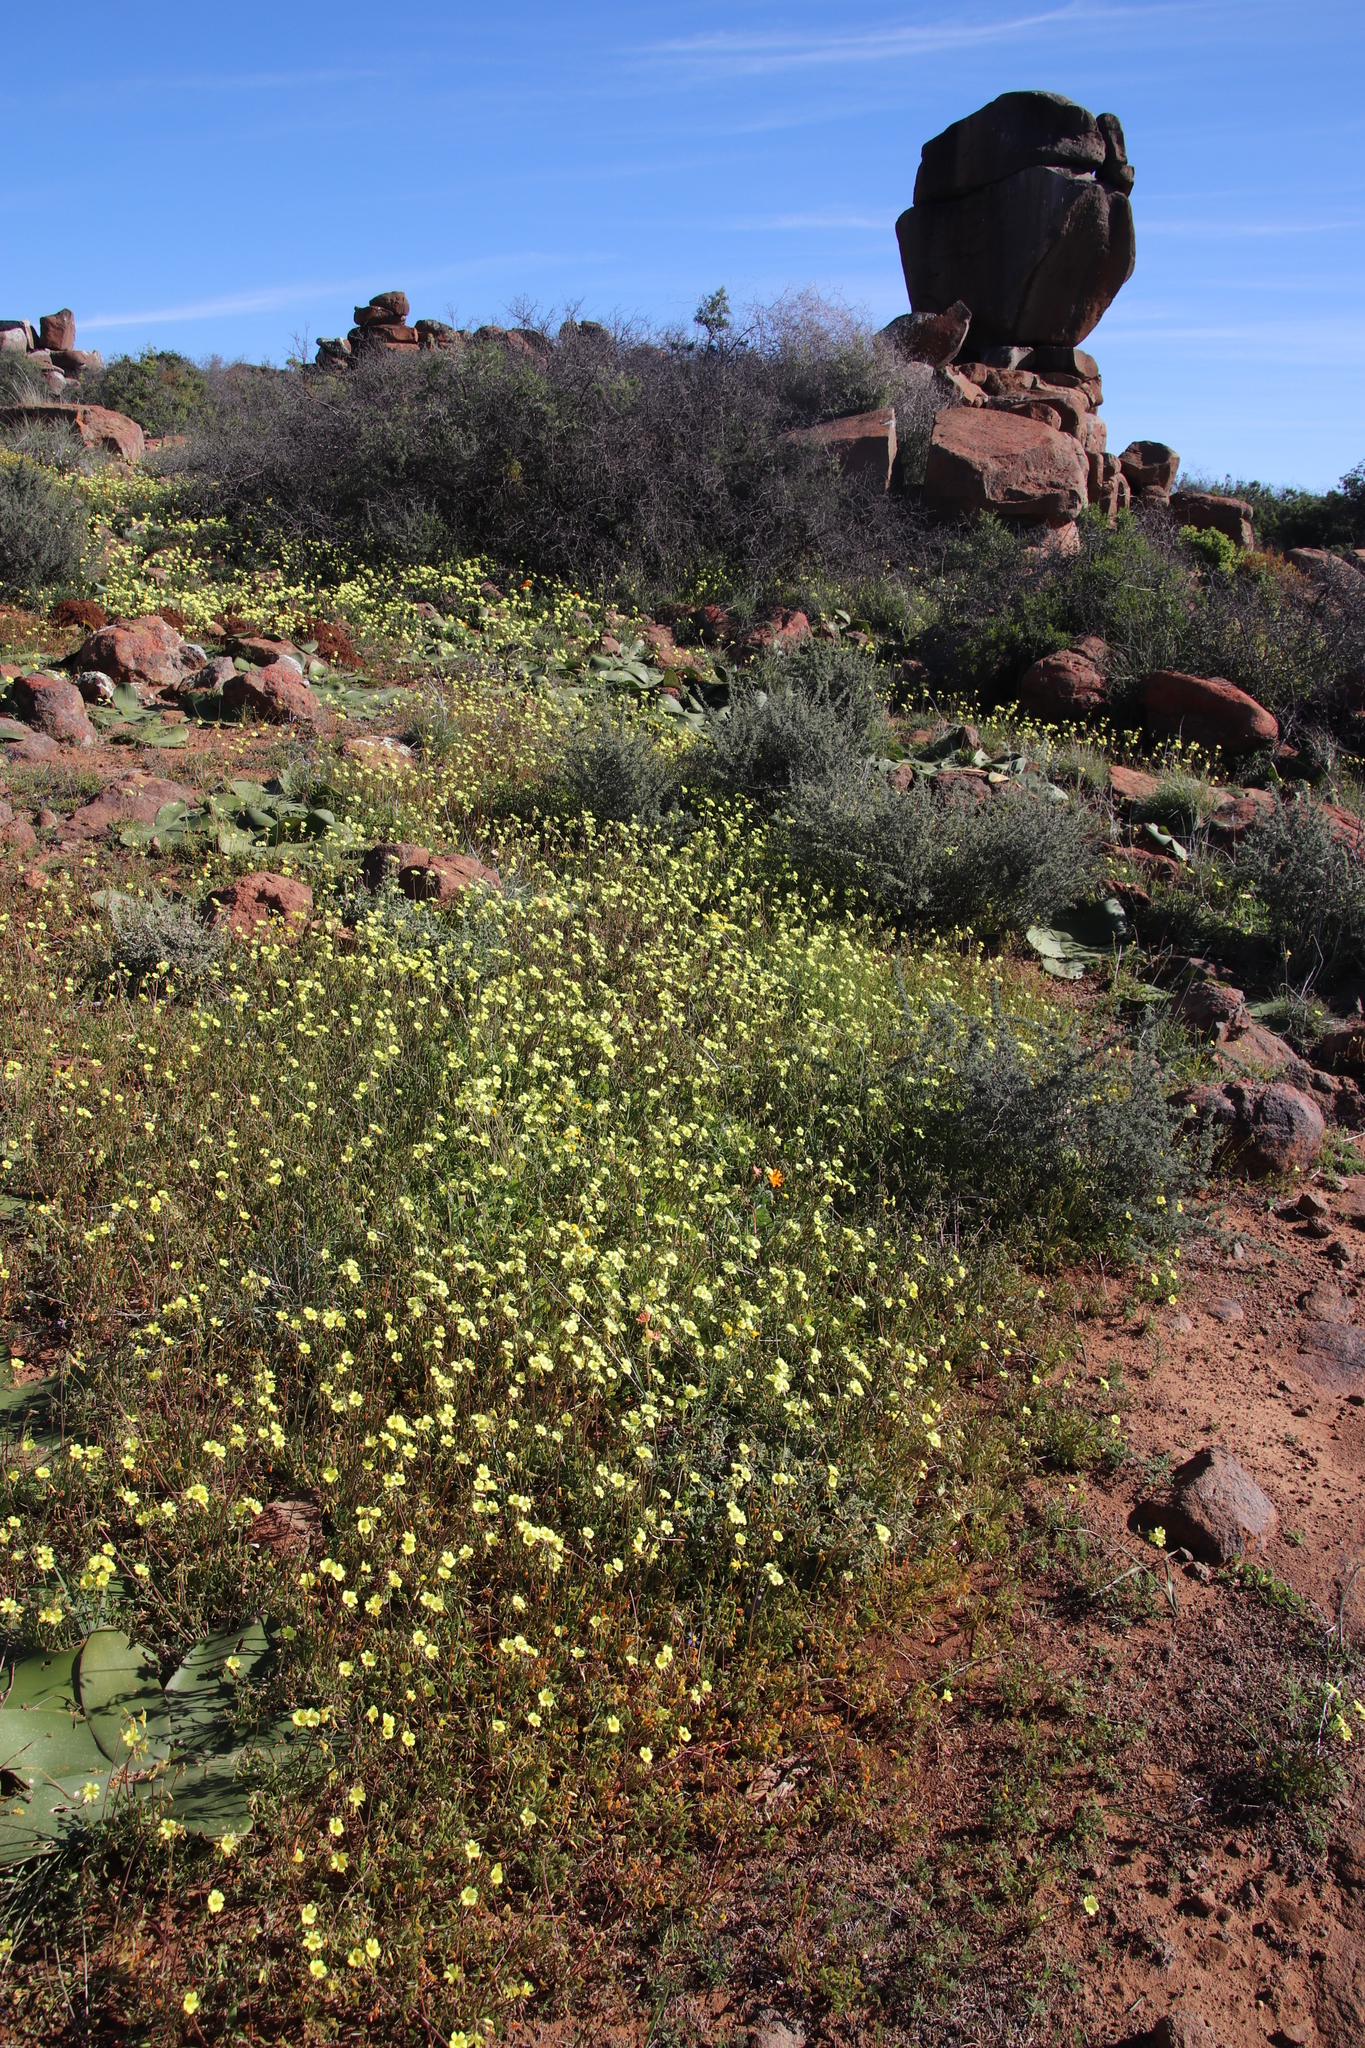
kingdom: Plantae
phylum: Tracheophyta
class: Magnoliopsida
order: Oxalidales
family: Oxalidaceae
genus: Oxalis
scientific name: Oxalis pes-caprae
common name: Bermuda-buttercup
